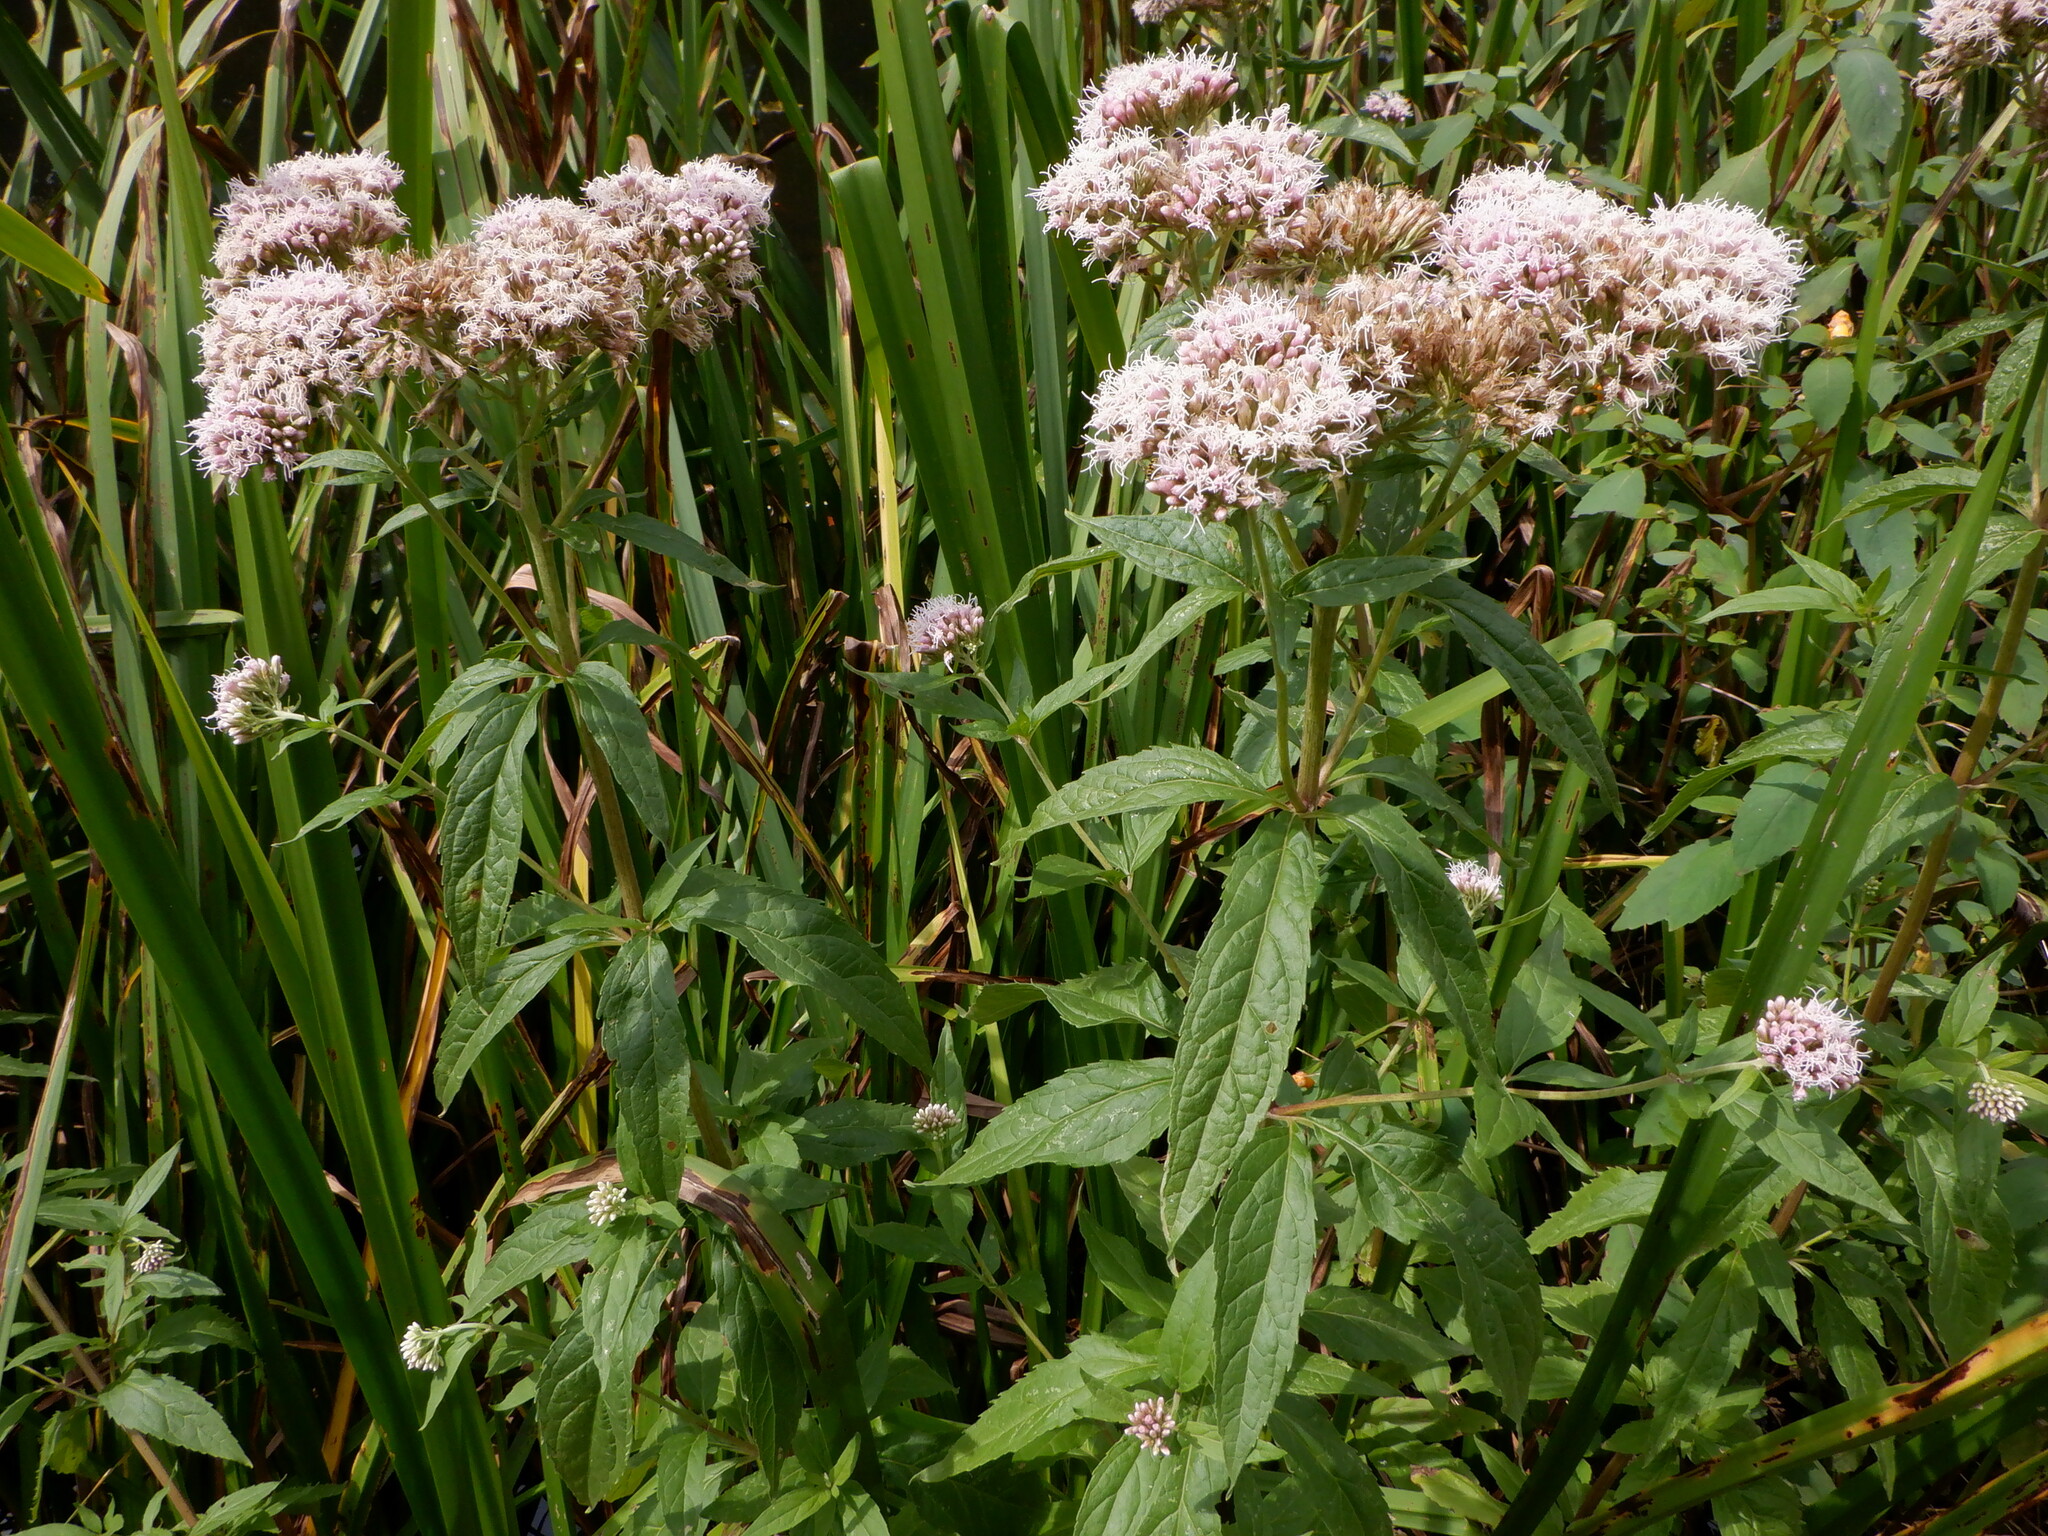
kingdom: Plantae
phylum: Tracheophyta
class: Magnoliopsida
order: Asterales
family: Asteraceae
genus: Eupatorium
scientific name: Eupatorium cannabinum
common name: Hemp-agrimony
